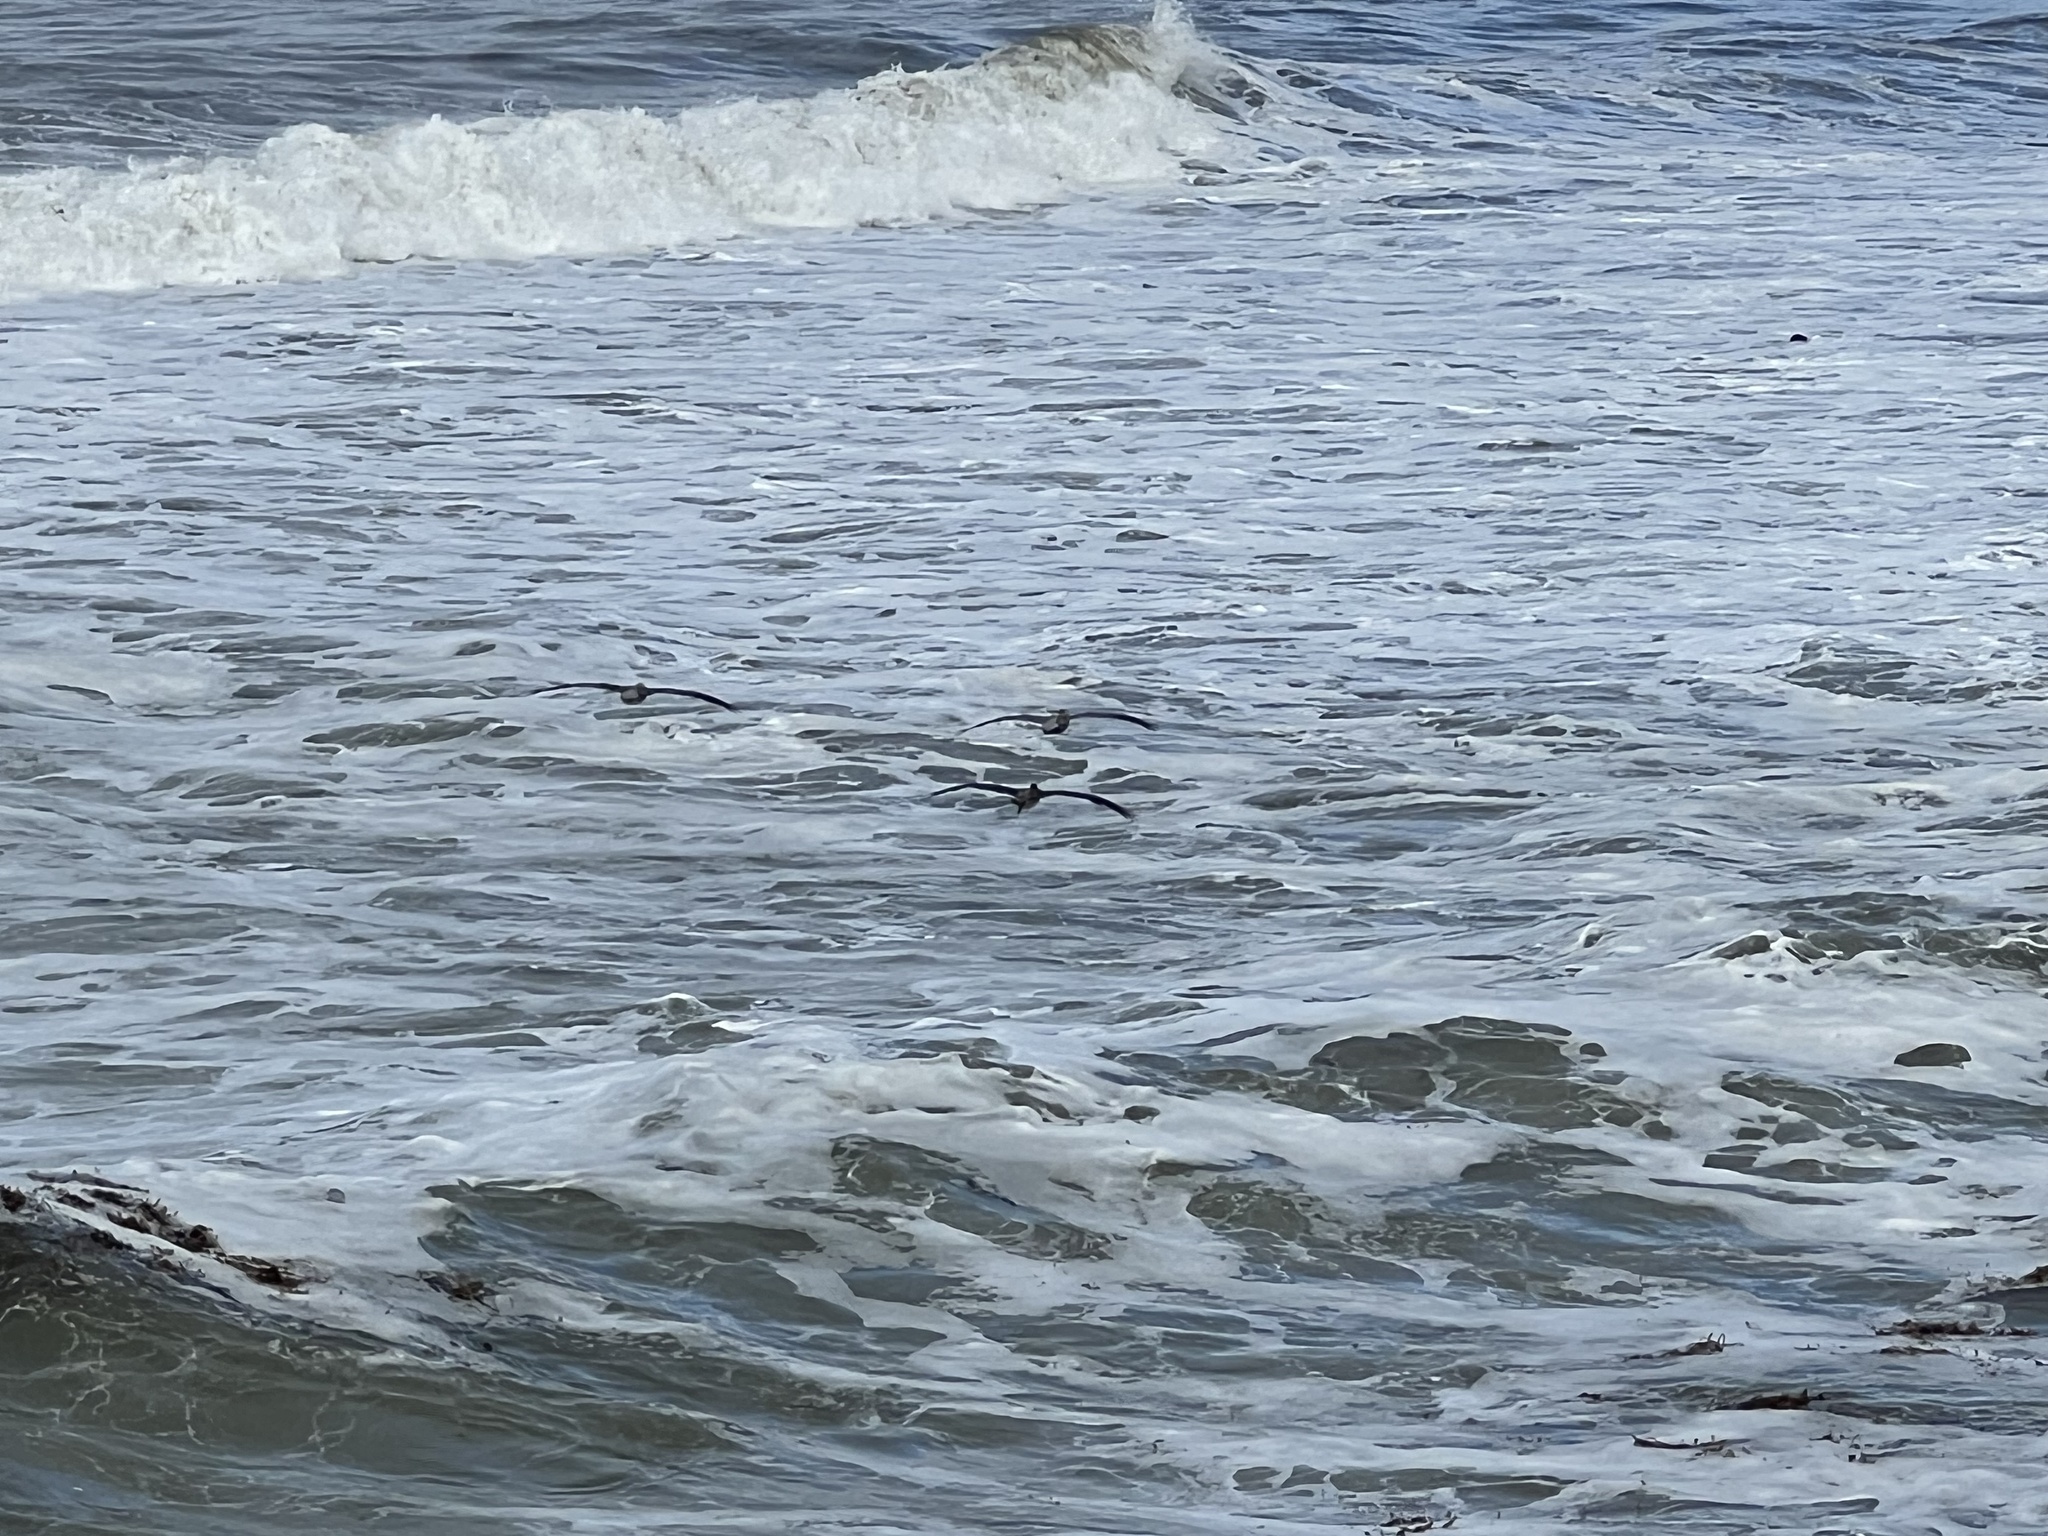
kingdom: Animalia
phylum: Chordata
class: Aves
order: Pelecaniformes
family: Pelecanidae
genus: Pelecanus
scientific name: Pelecanus occidentalis
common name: Brown pelican
